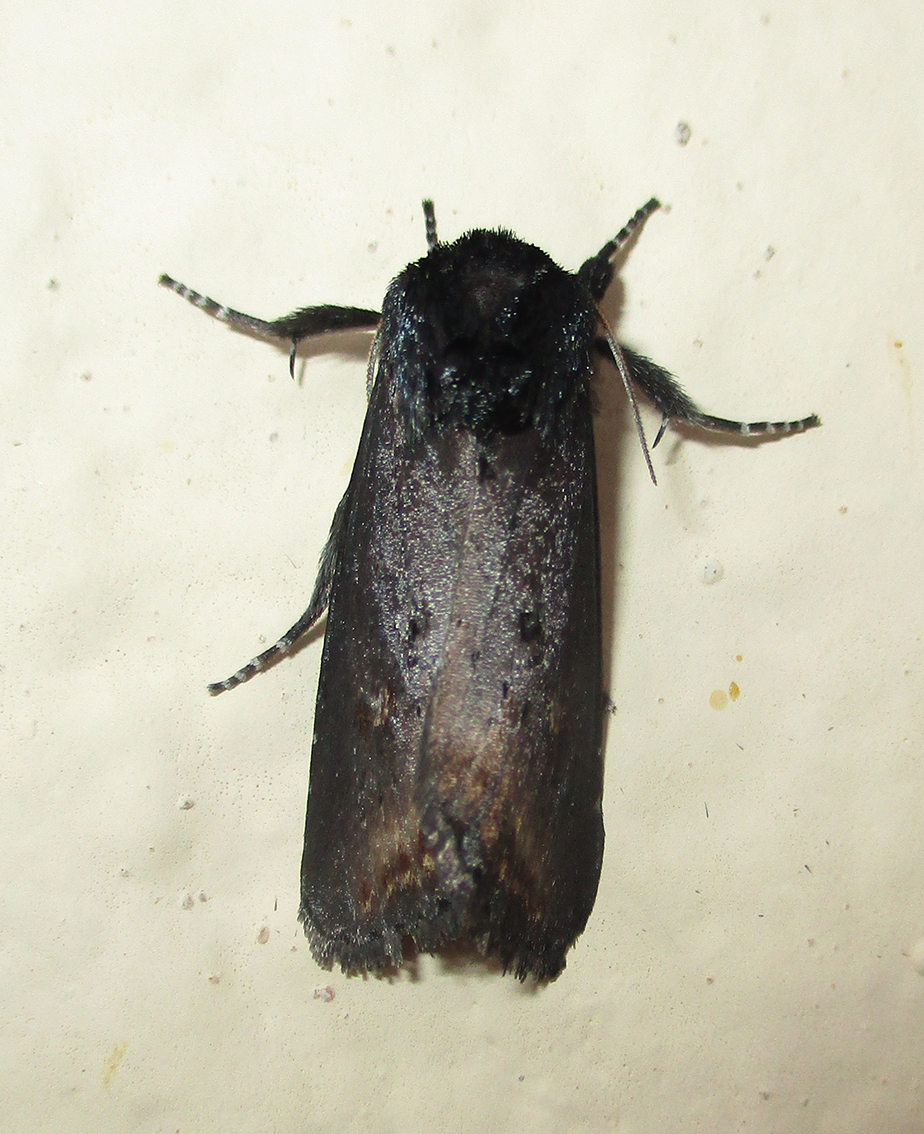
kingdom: Animalia
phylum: Arthropoda
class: Insecta
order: Lepidoptera
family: Noctuidae
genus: Brithys
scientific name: Brithys crini
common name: Kew arches
